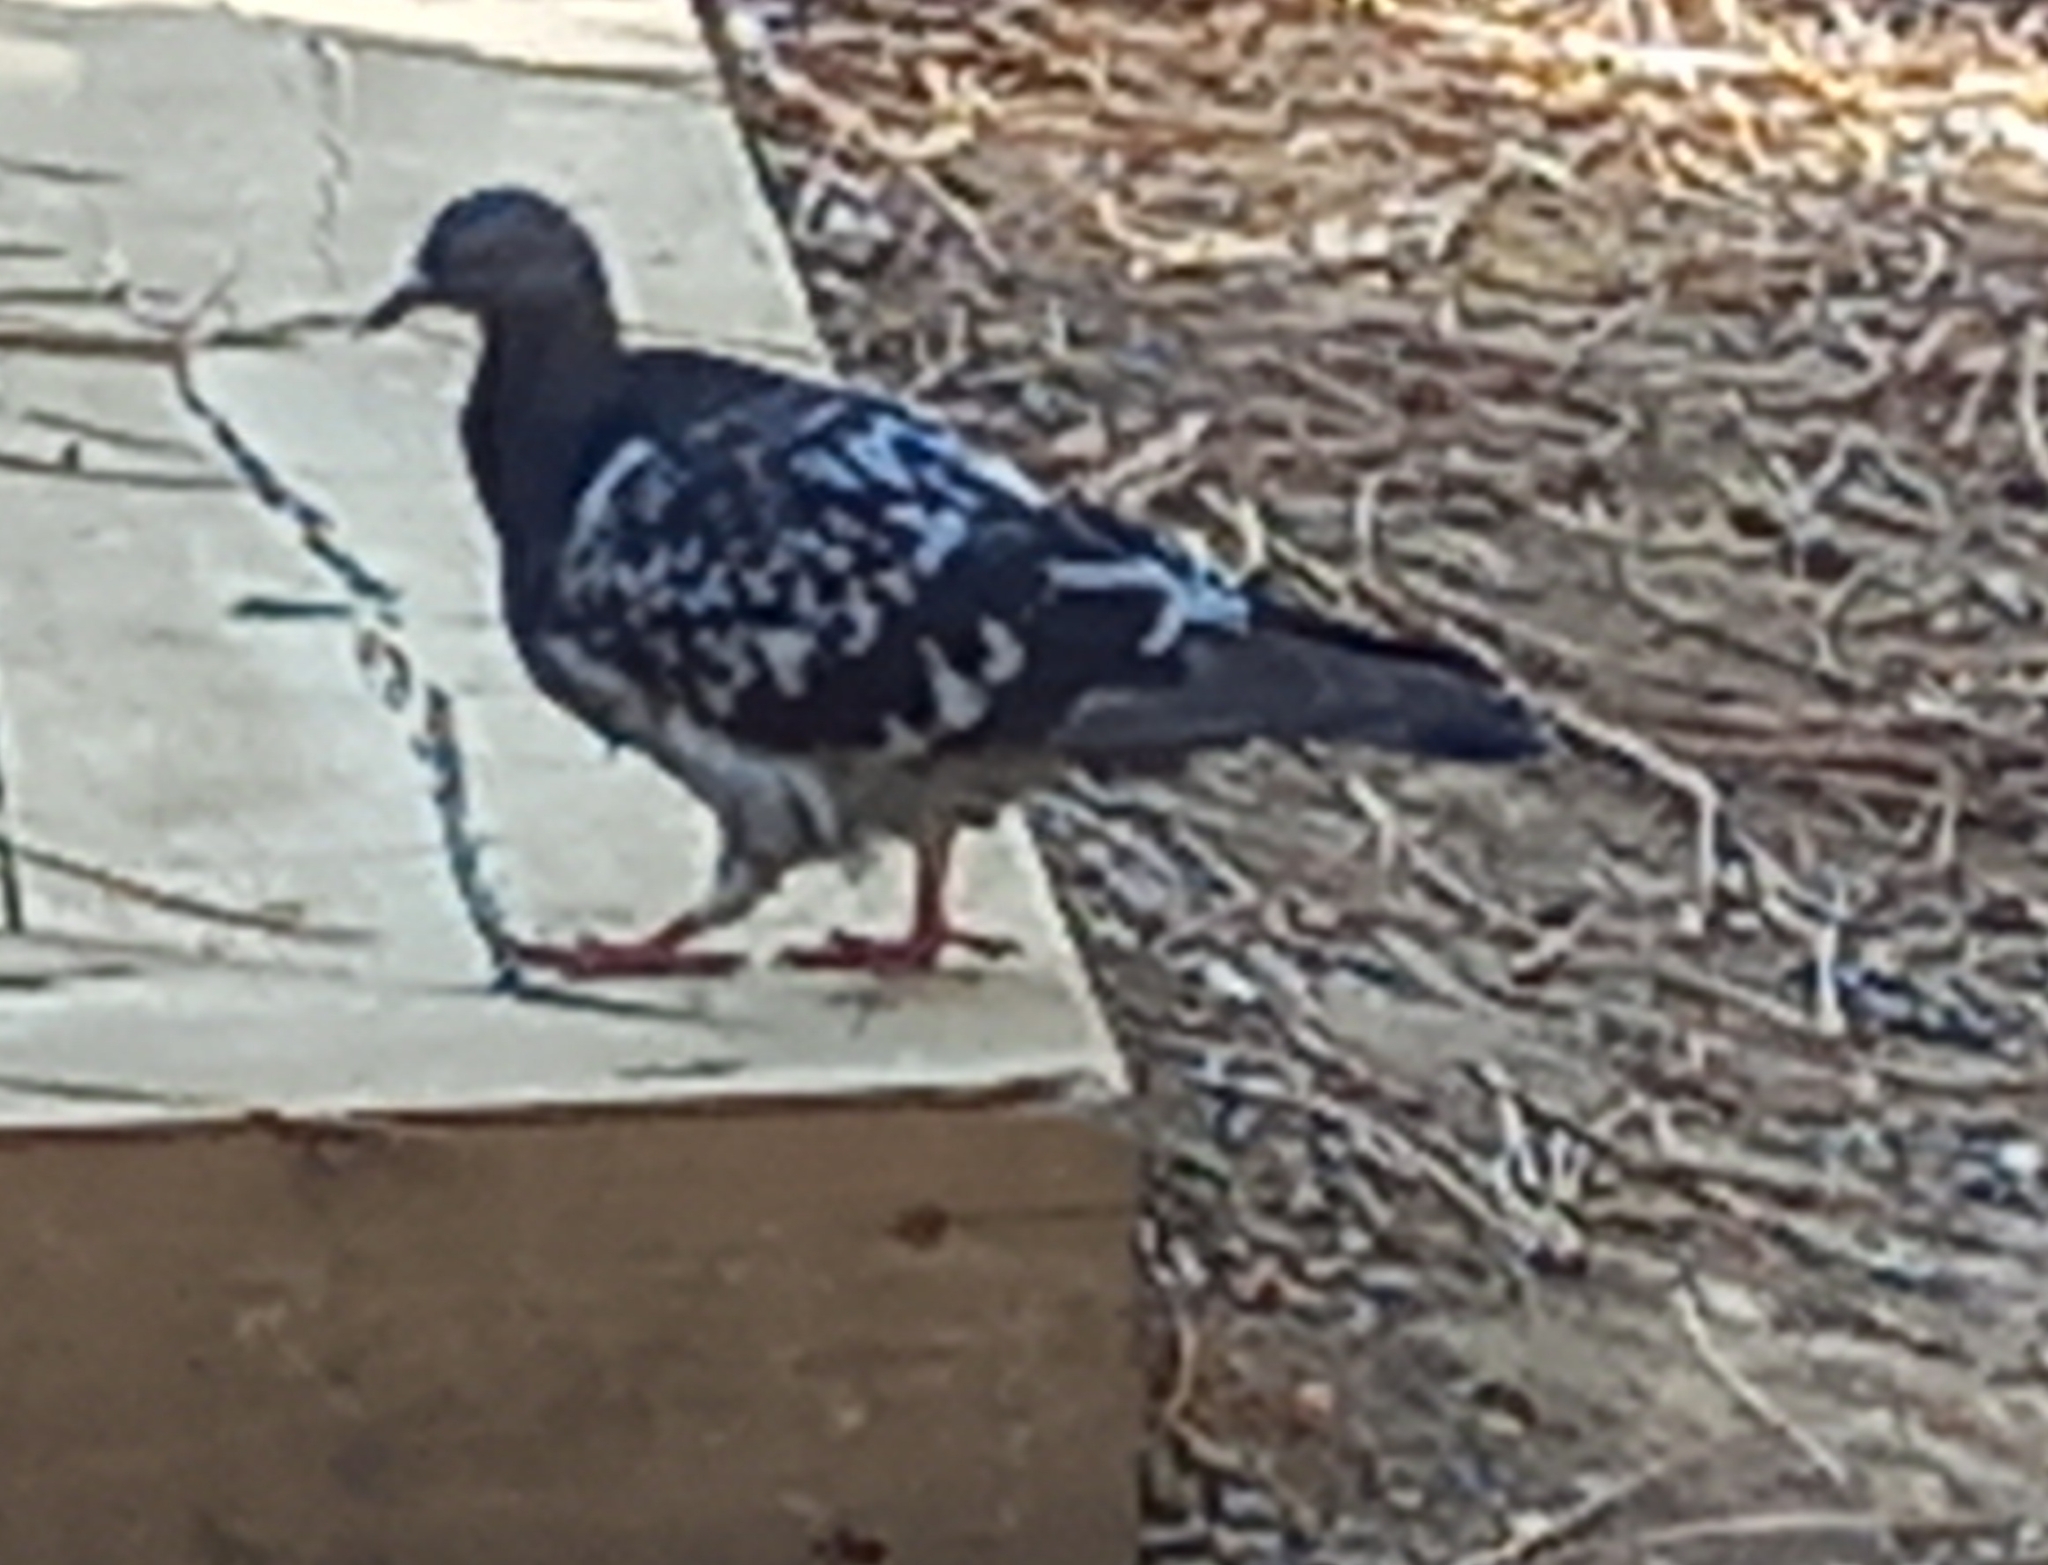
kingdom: Animalia
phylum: Chordata
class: Aves
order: Columbiformes
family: Columbidae
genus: Columba
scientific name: Columba livia
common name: Rock pigeon
